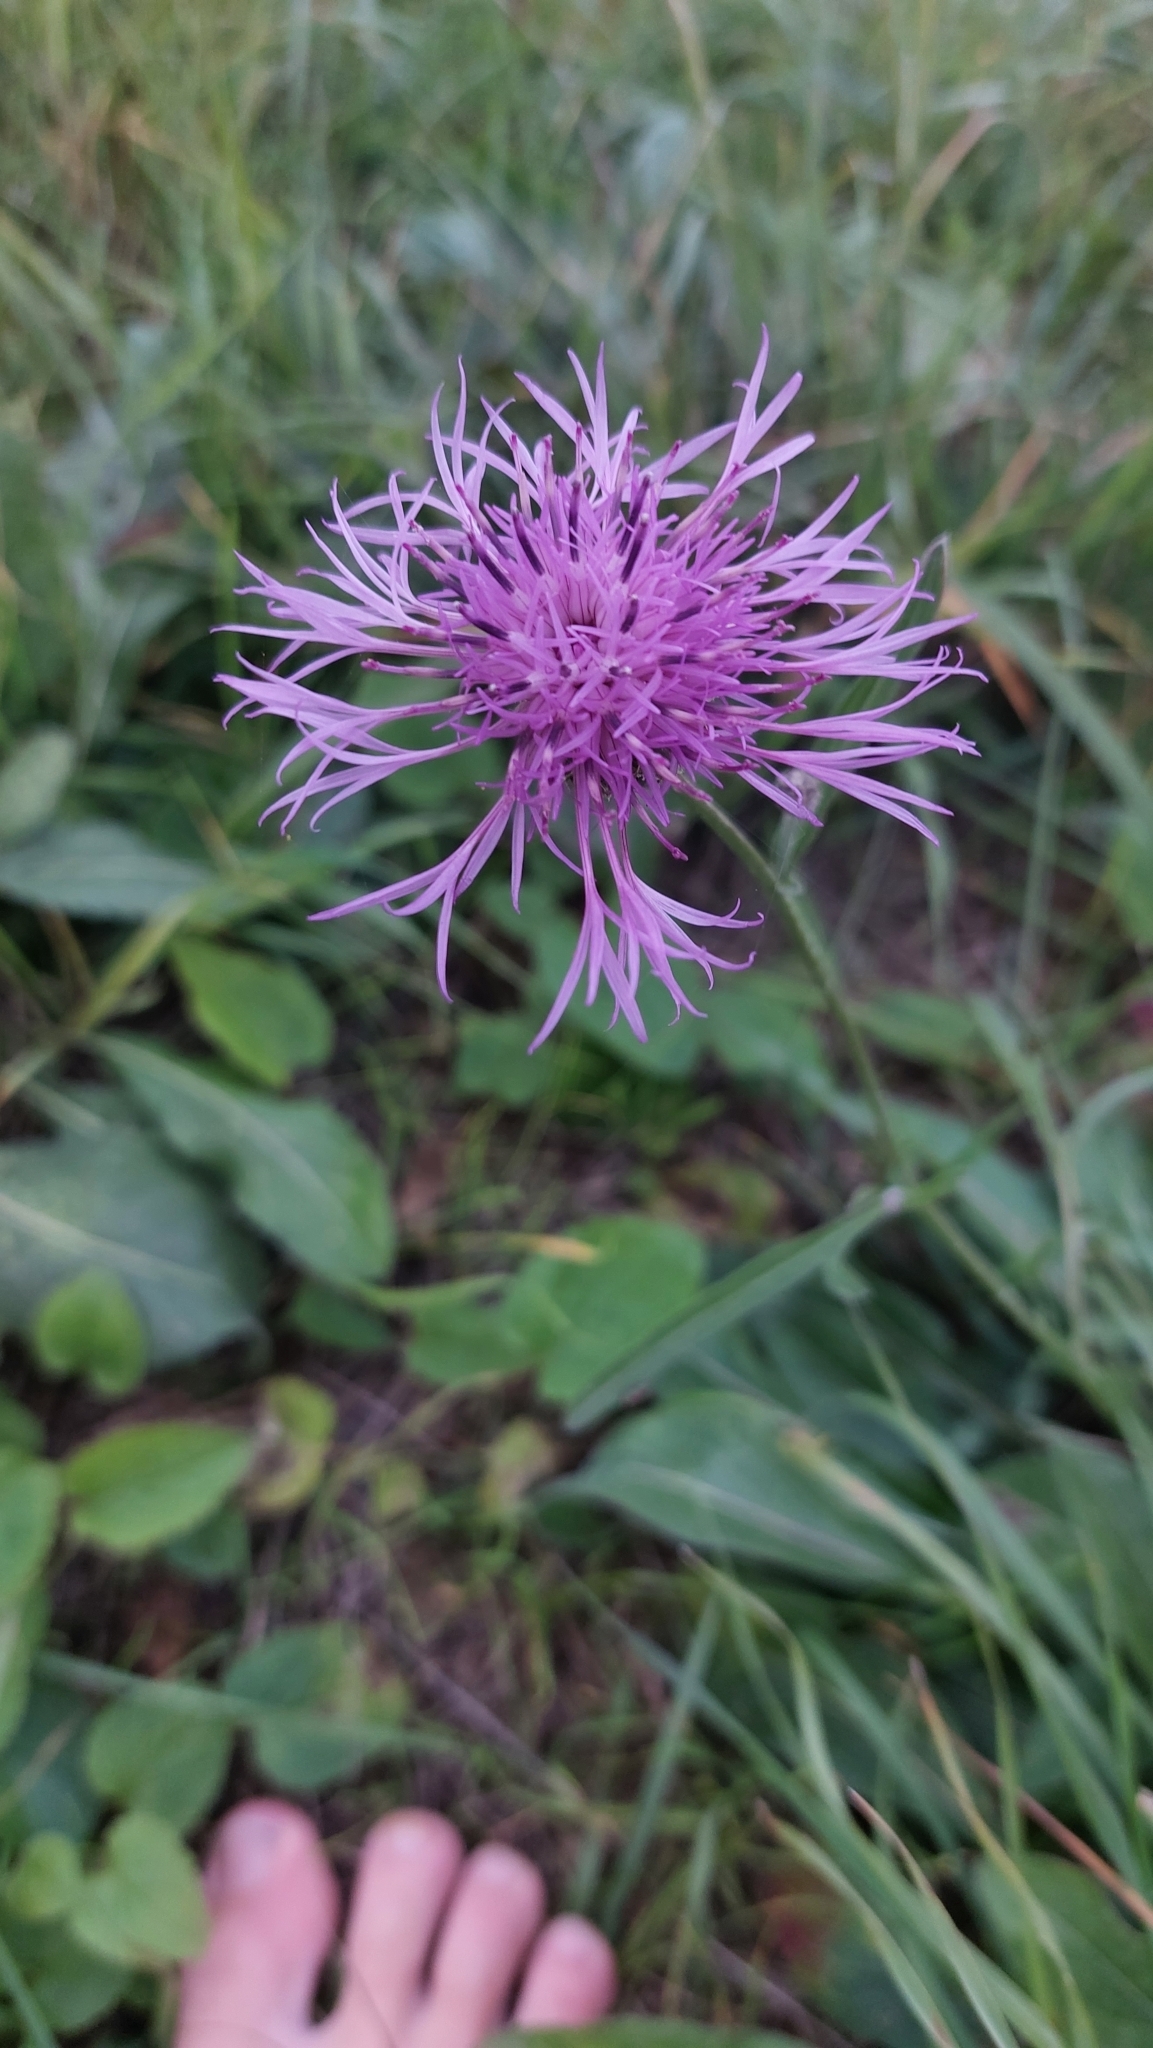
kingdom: Plantae
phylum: Tracheophyta
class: Magnoliopsida
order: Asterales
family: Asteraceae
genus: Centaurea
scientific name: Centaurea scabiosa
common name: Greater knapweed
